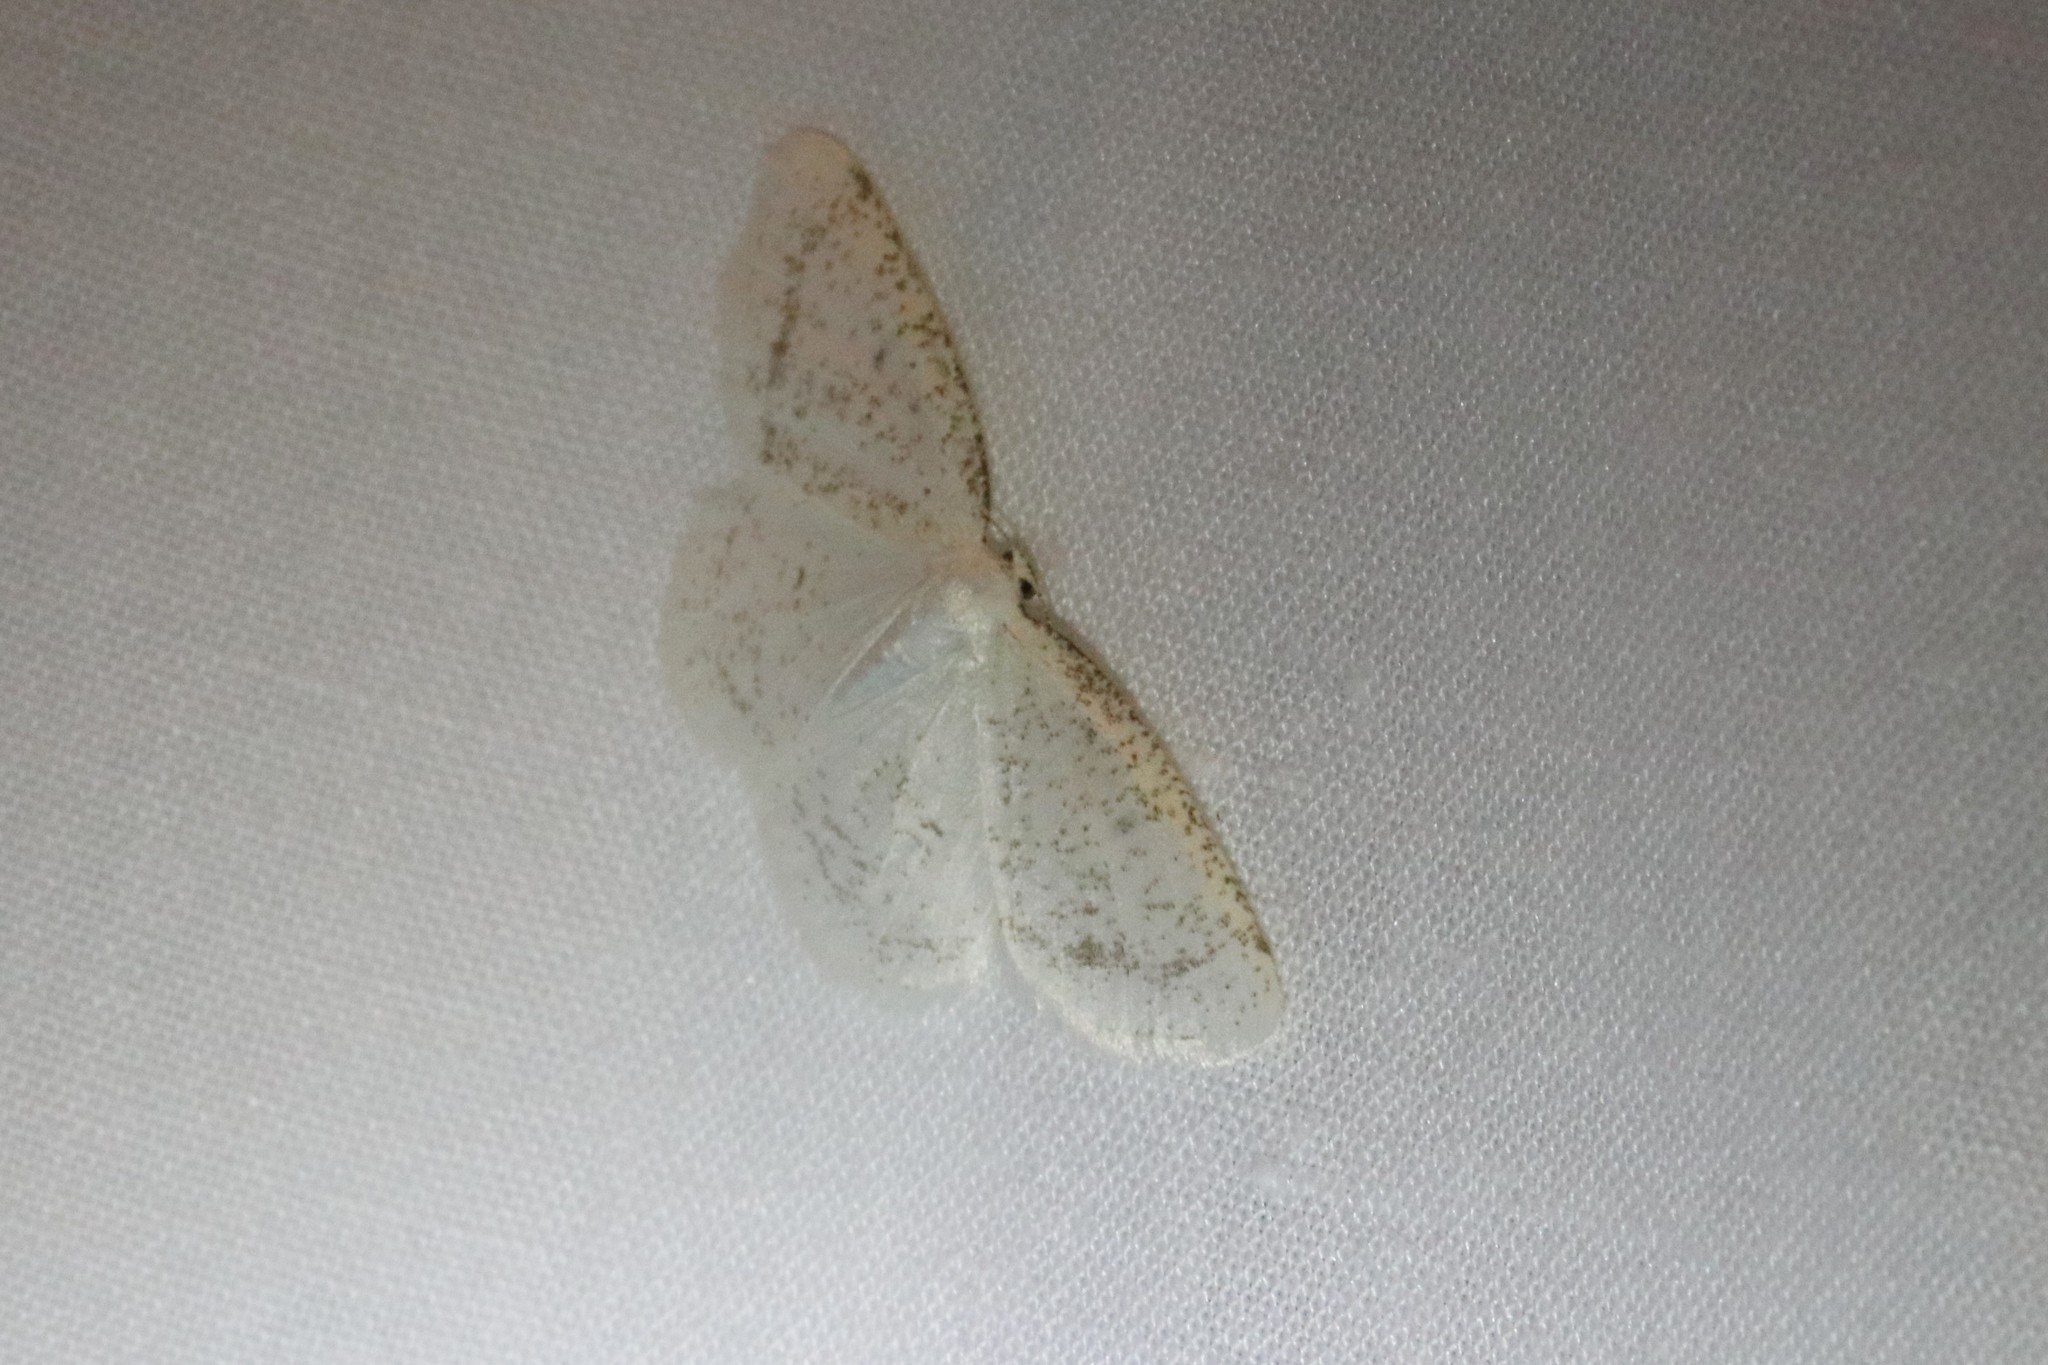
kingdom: Animalia
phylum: Arthropoda
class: Insecta
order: Lepidoptera
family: Geometridae
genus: Protitame
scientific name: Protitame virginalis
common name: Virgin moth
